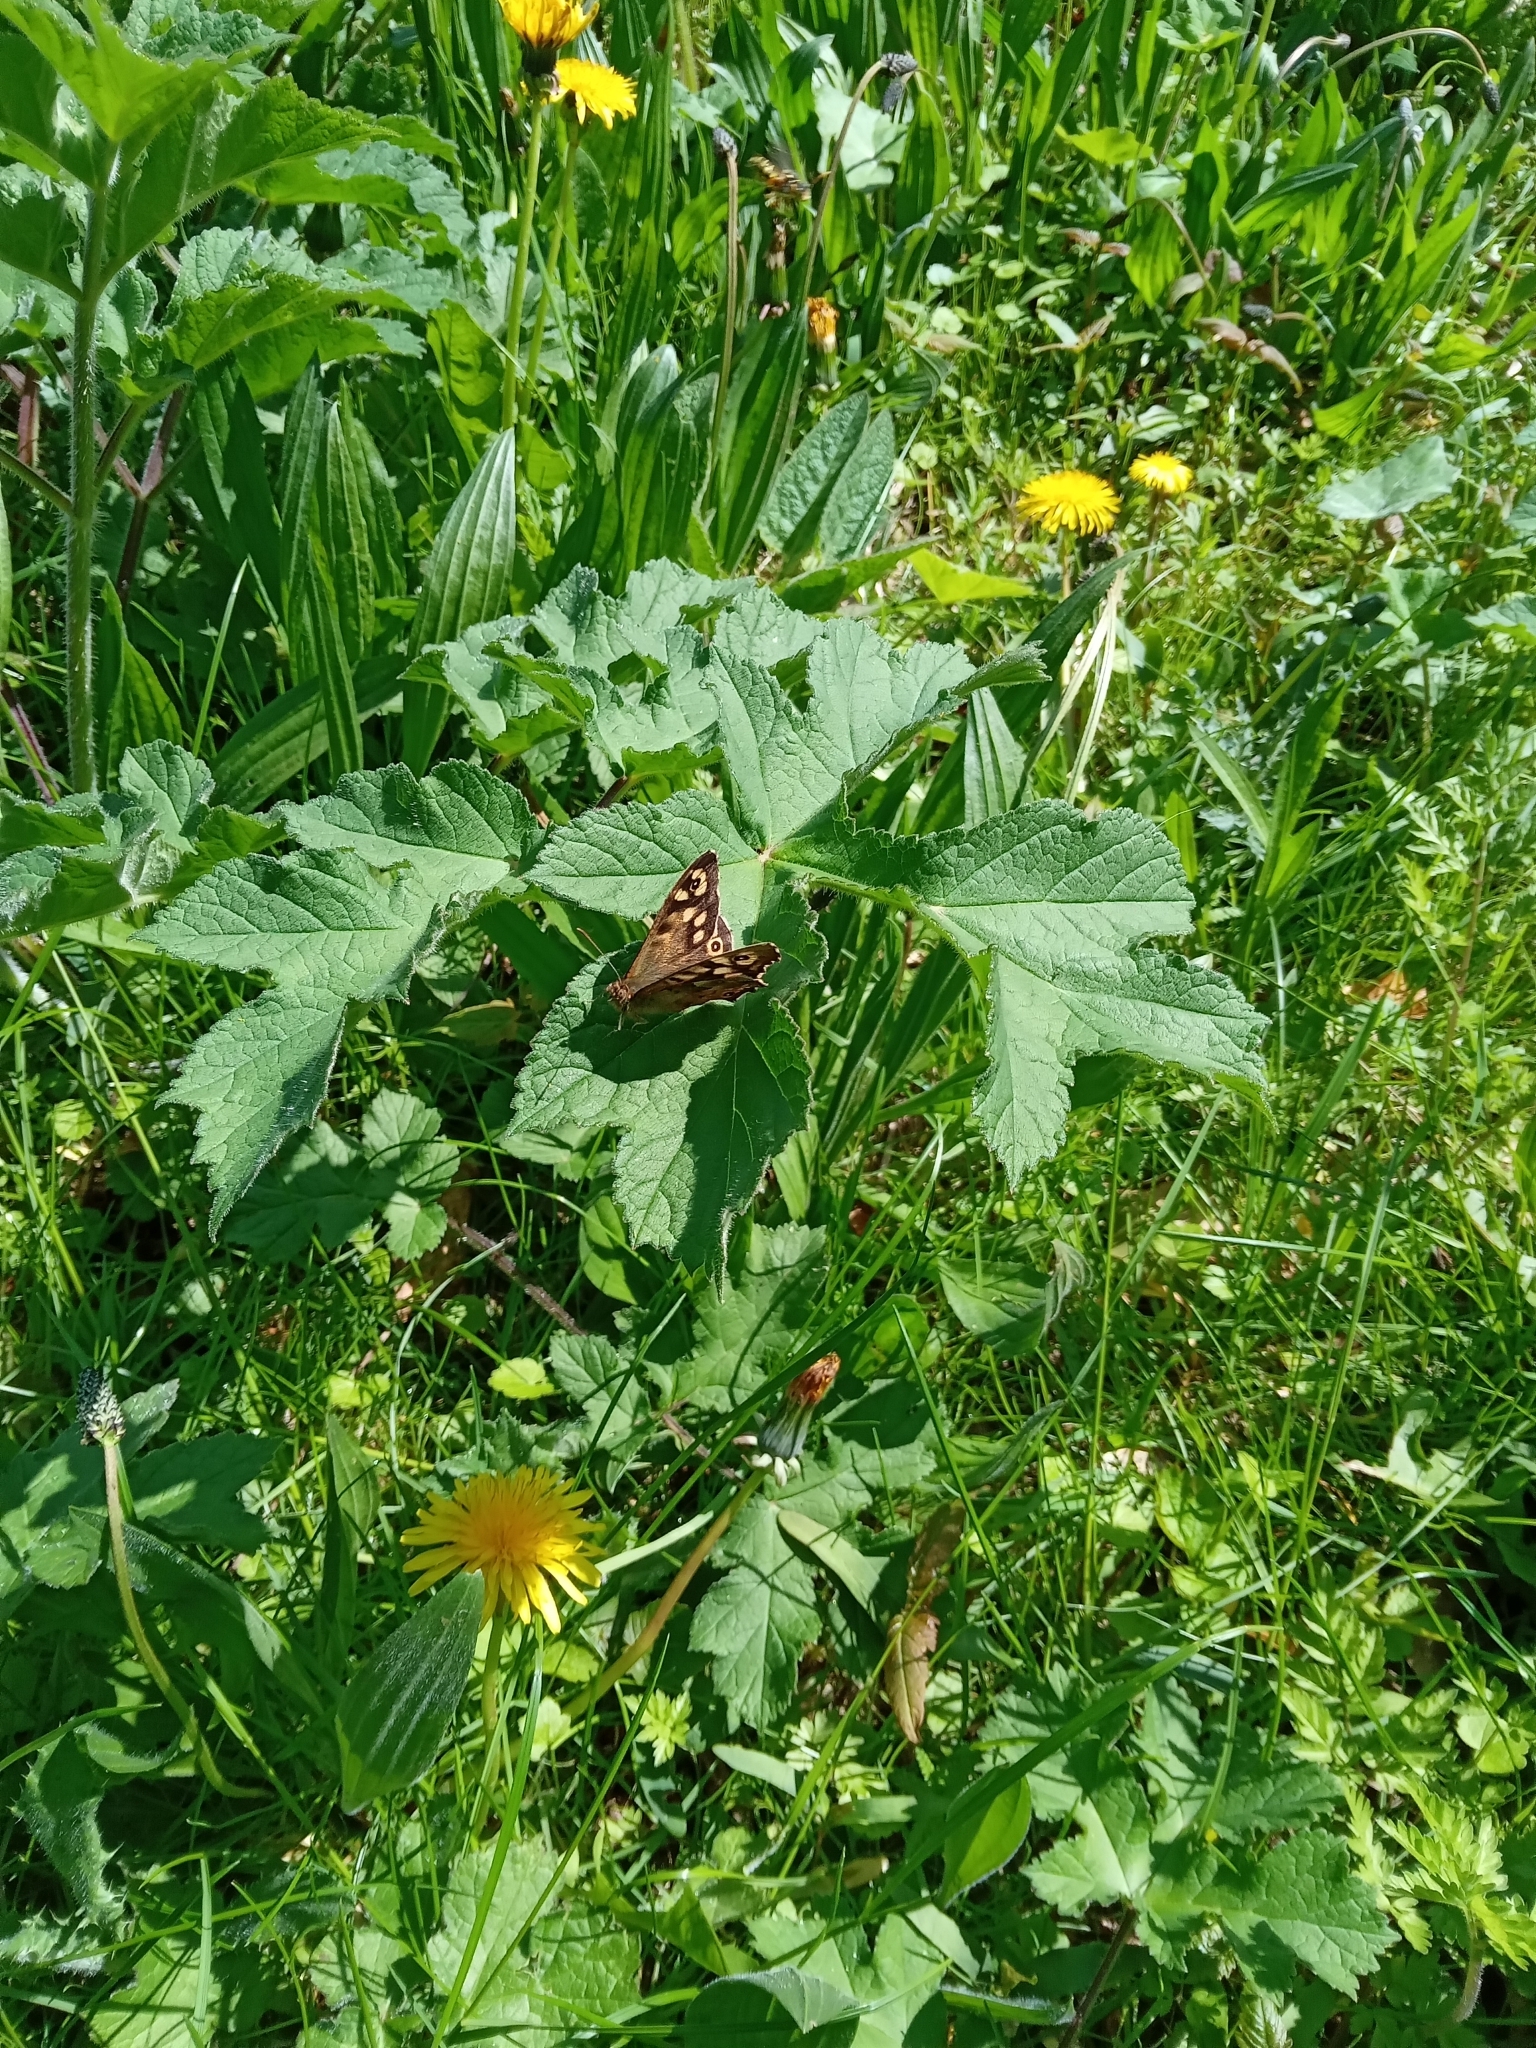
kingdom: Animalia
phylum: Arthropoda
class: Insecta
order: Lepidoptera
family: Nymphalidae
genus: Pararge
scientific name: Pararge aegeria
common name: Speckled wood
